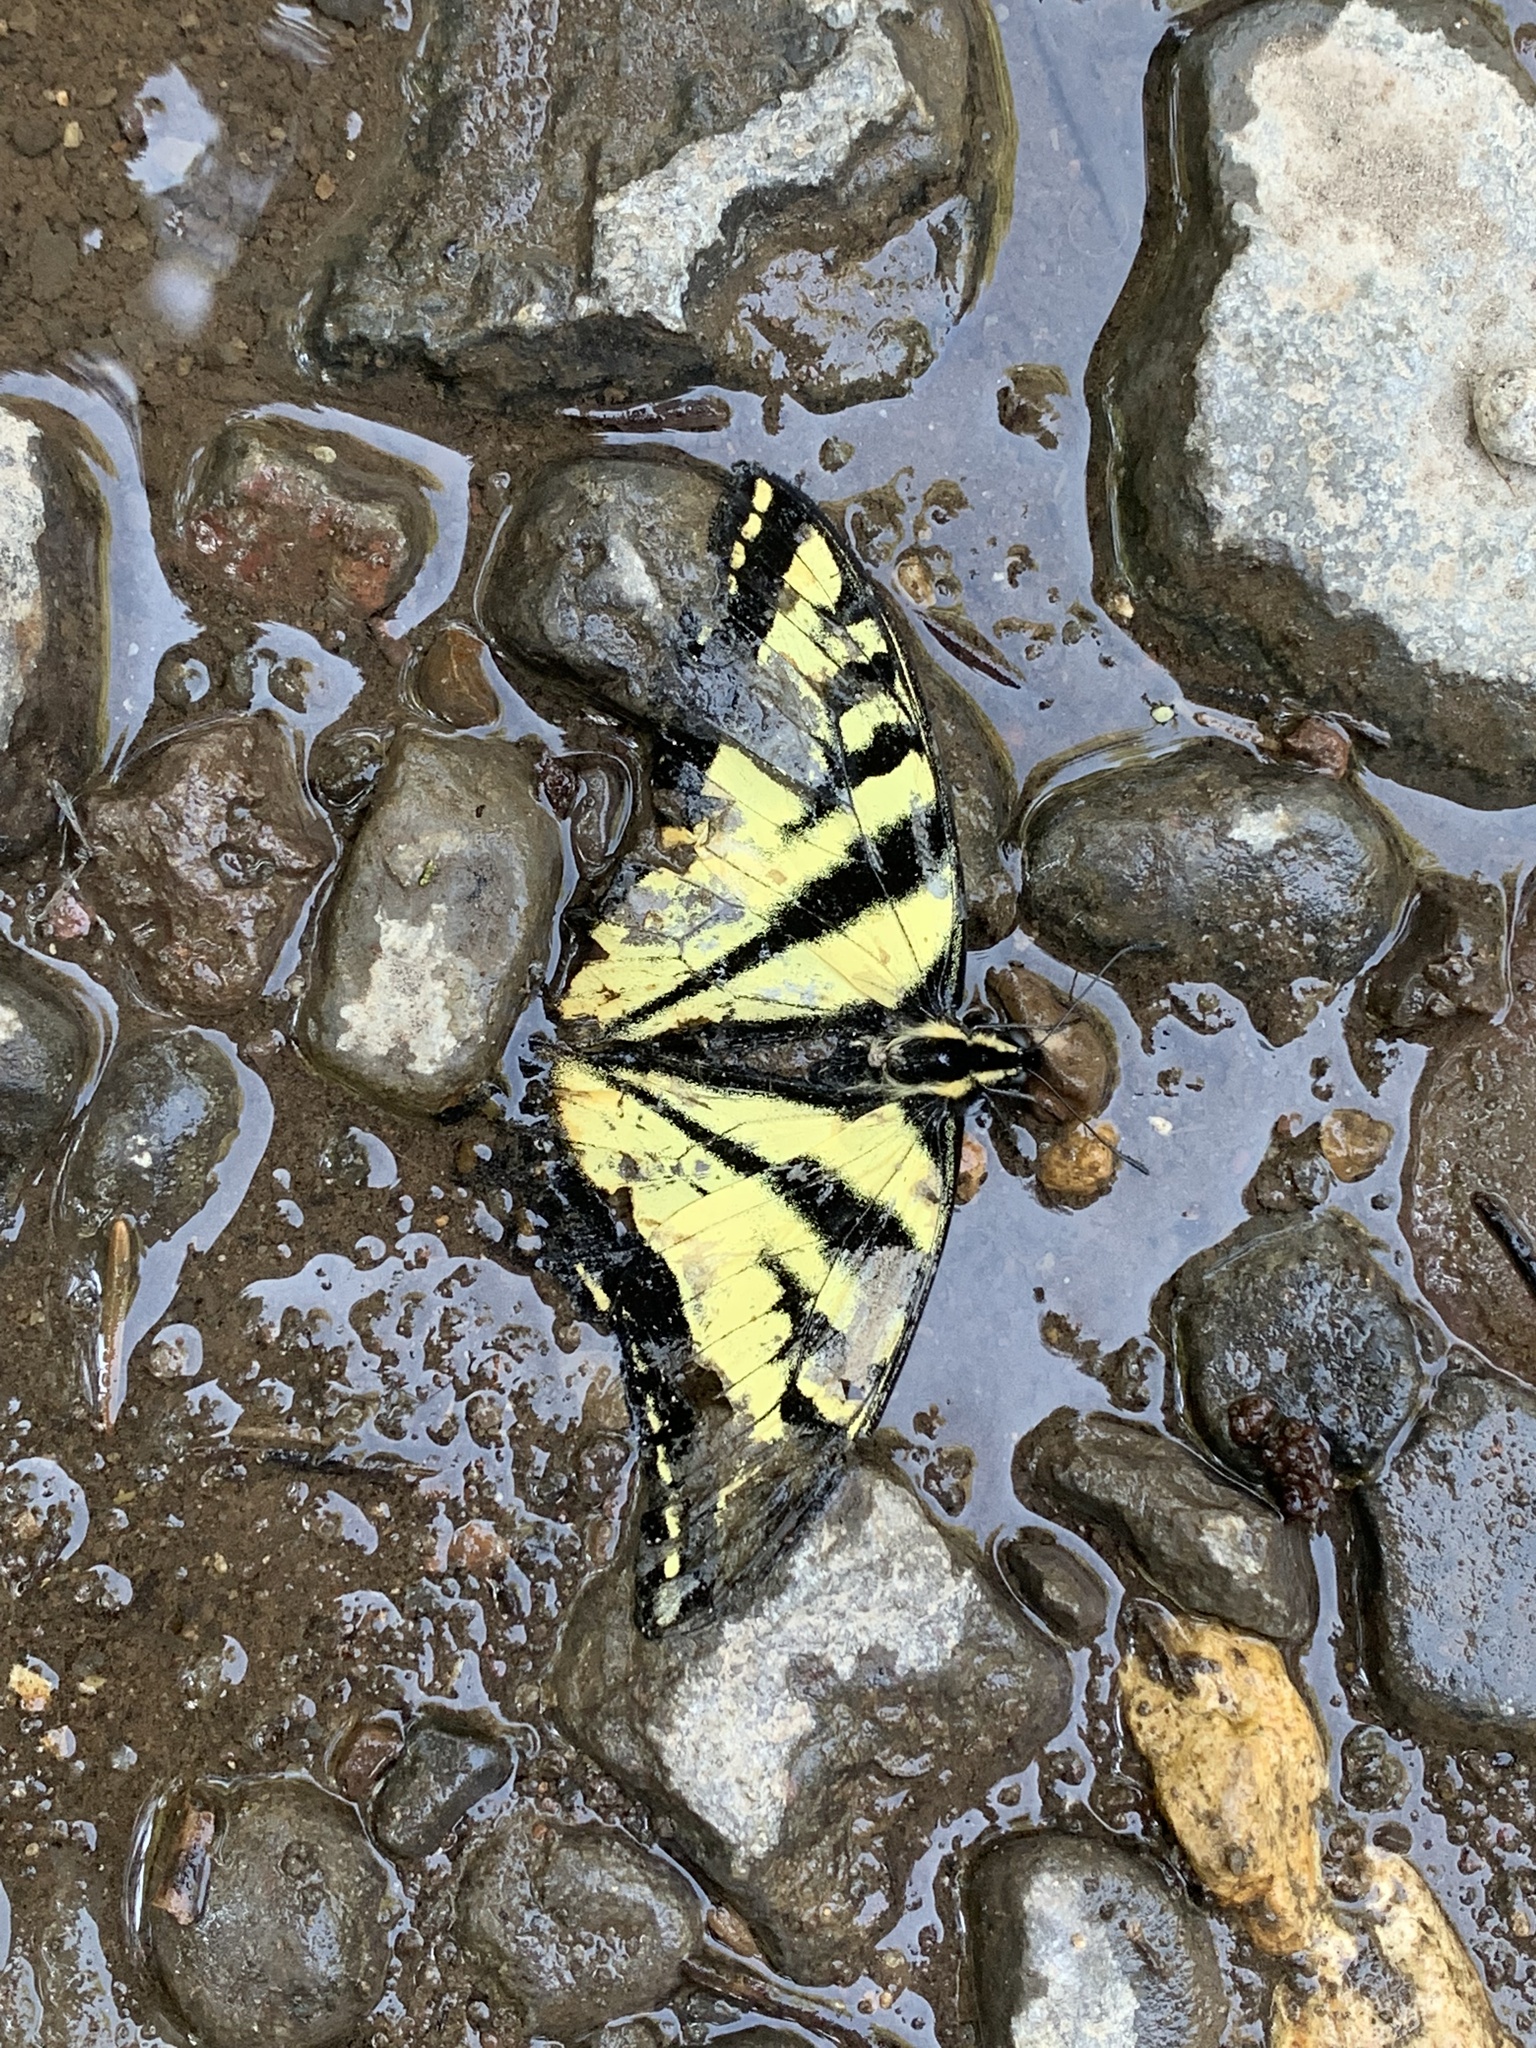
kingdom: Animalia
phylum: Arthropoda
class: Insecta
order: Lepidoptera
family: Papilionidae
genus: Papilio
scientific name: Papilio rutulus
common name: Western tiger swallowtail
